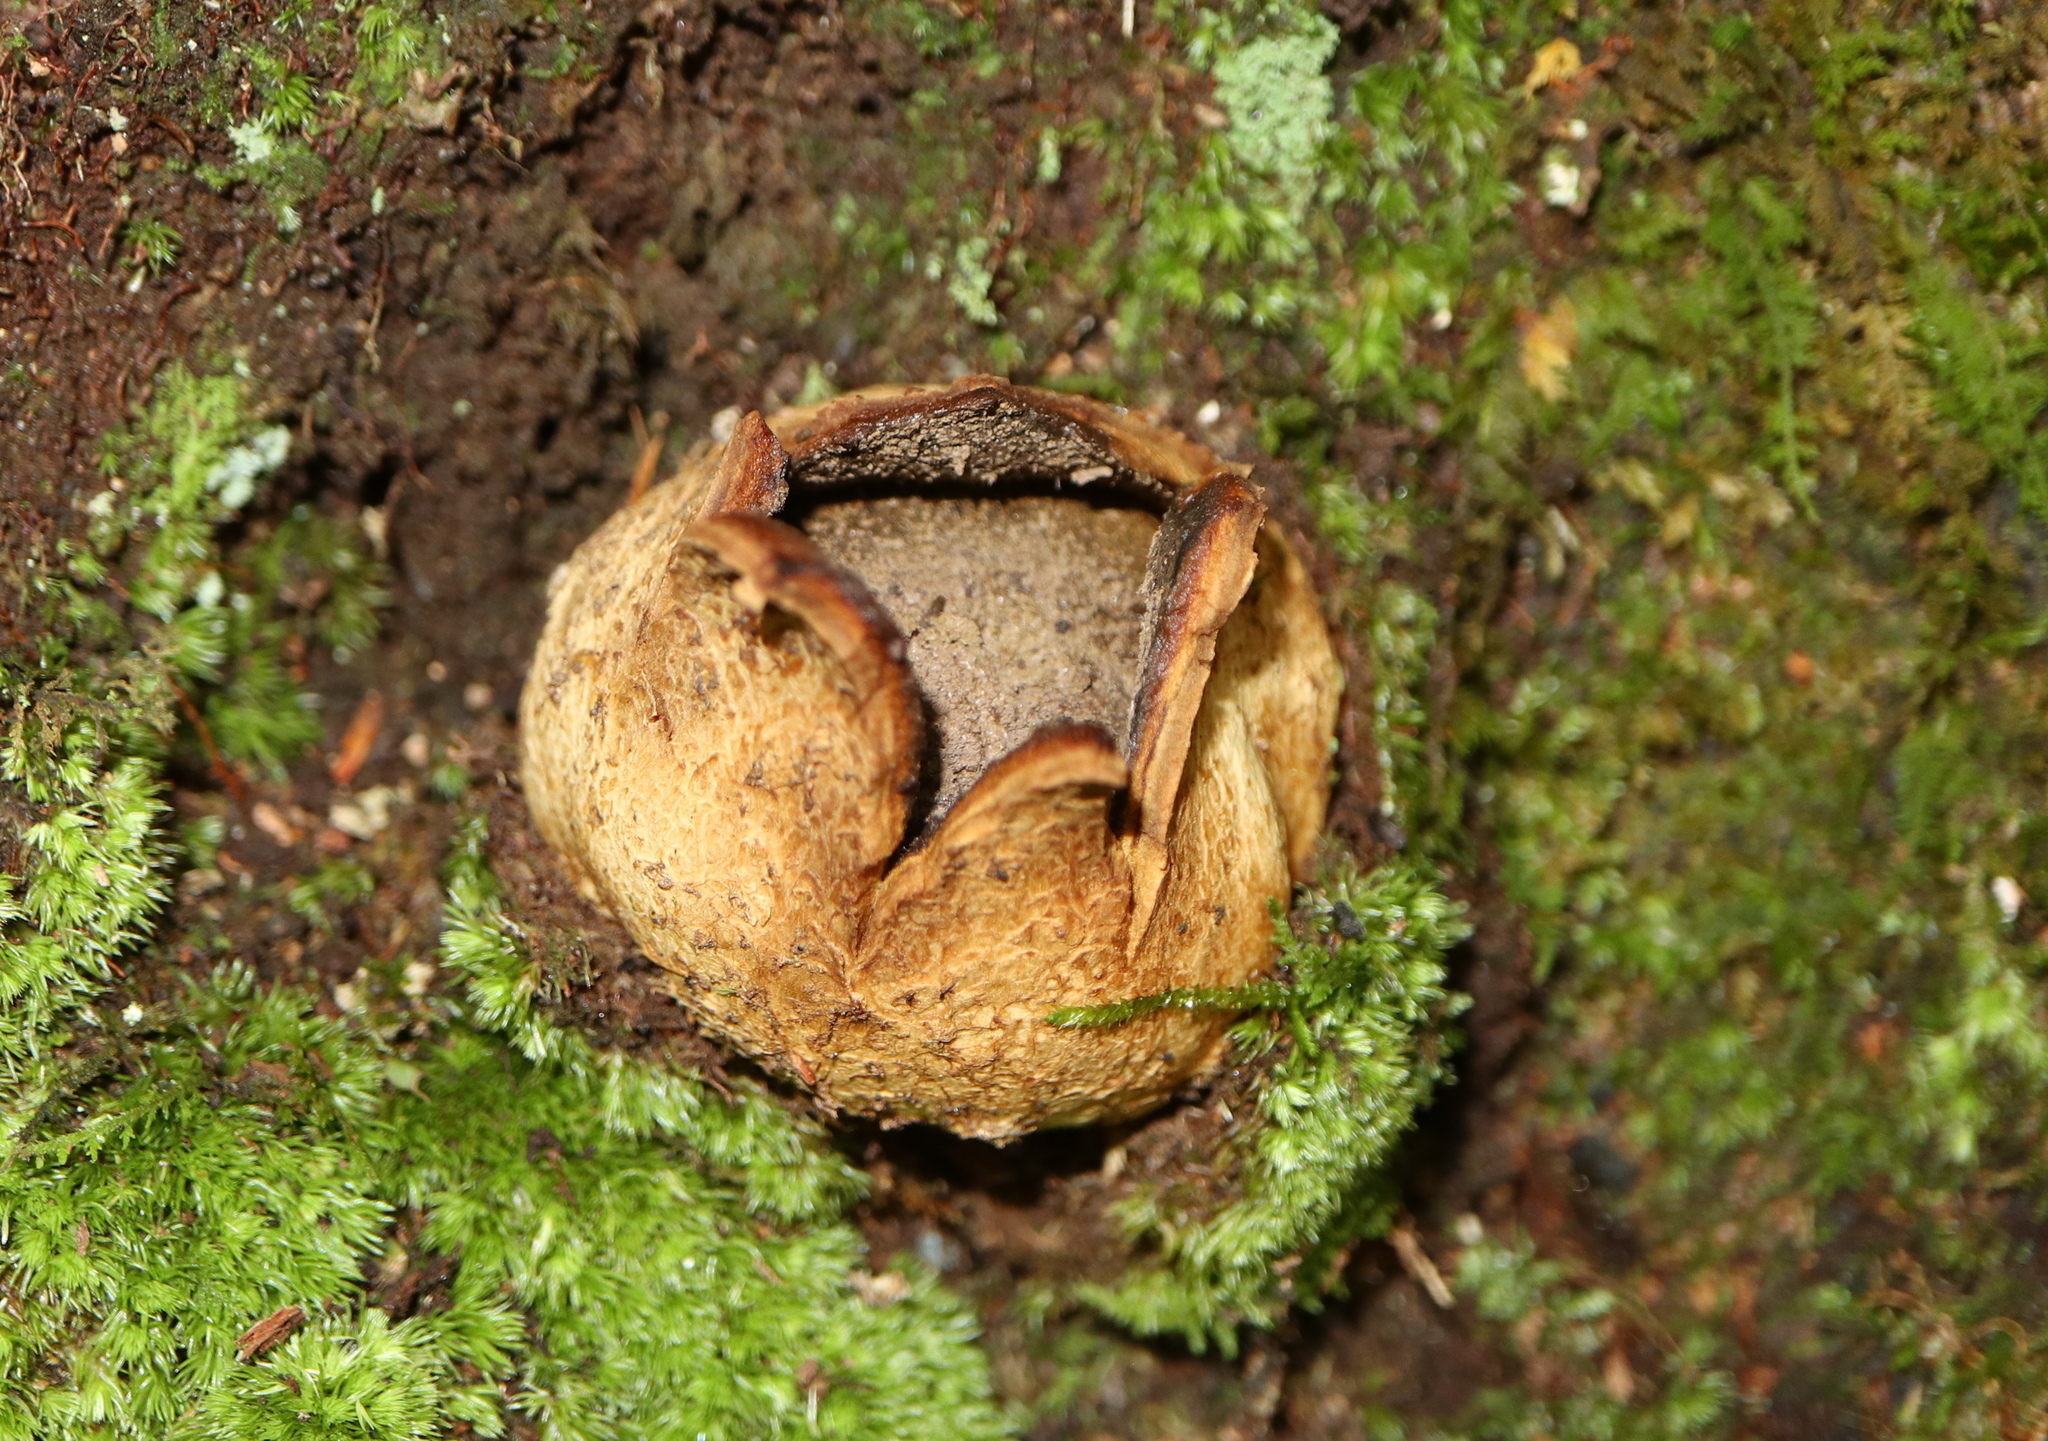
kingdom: Fungi
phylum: Basidiomycota
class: Agaricomycetes
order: Boletales
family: Sclerodermataceae
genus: Scleroderma
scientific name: Scleroderma polyrhizum
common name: Many-rooted earthball
